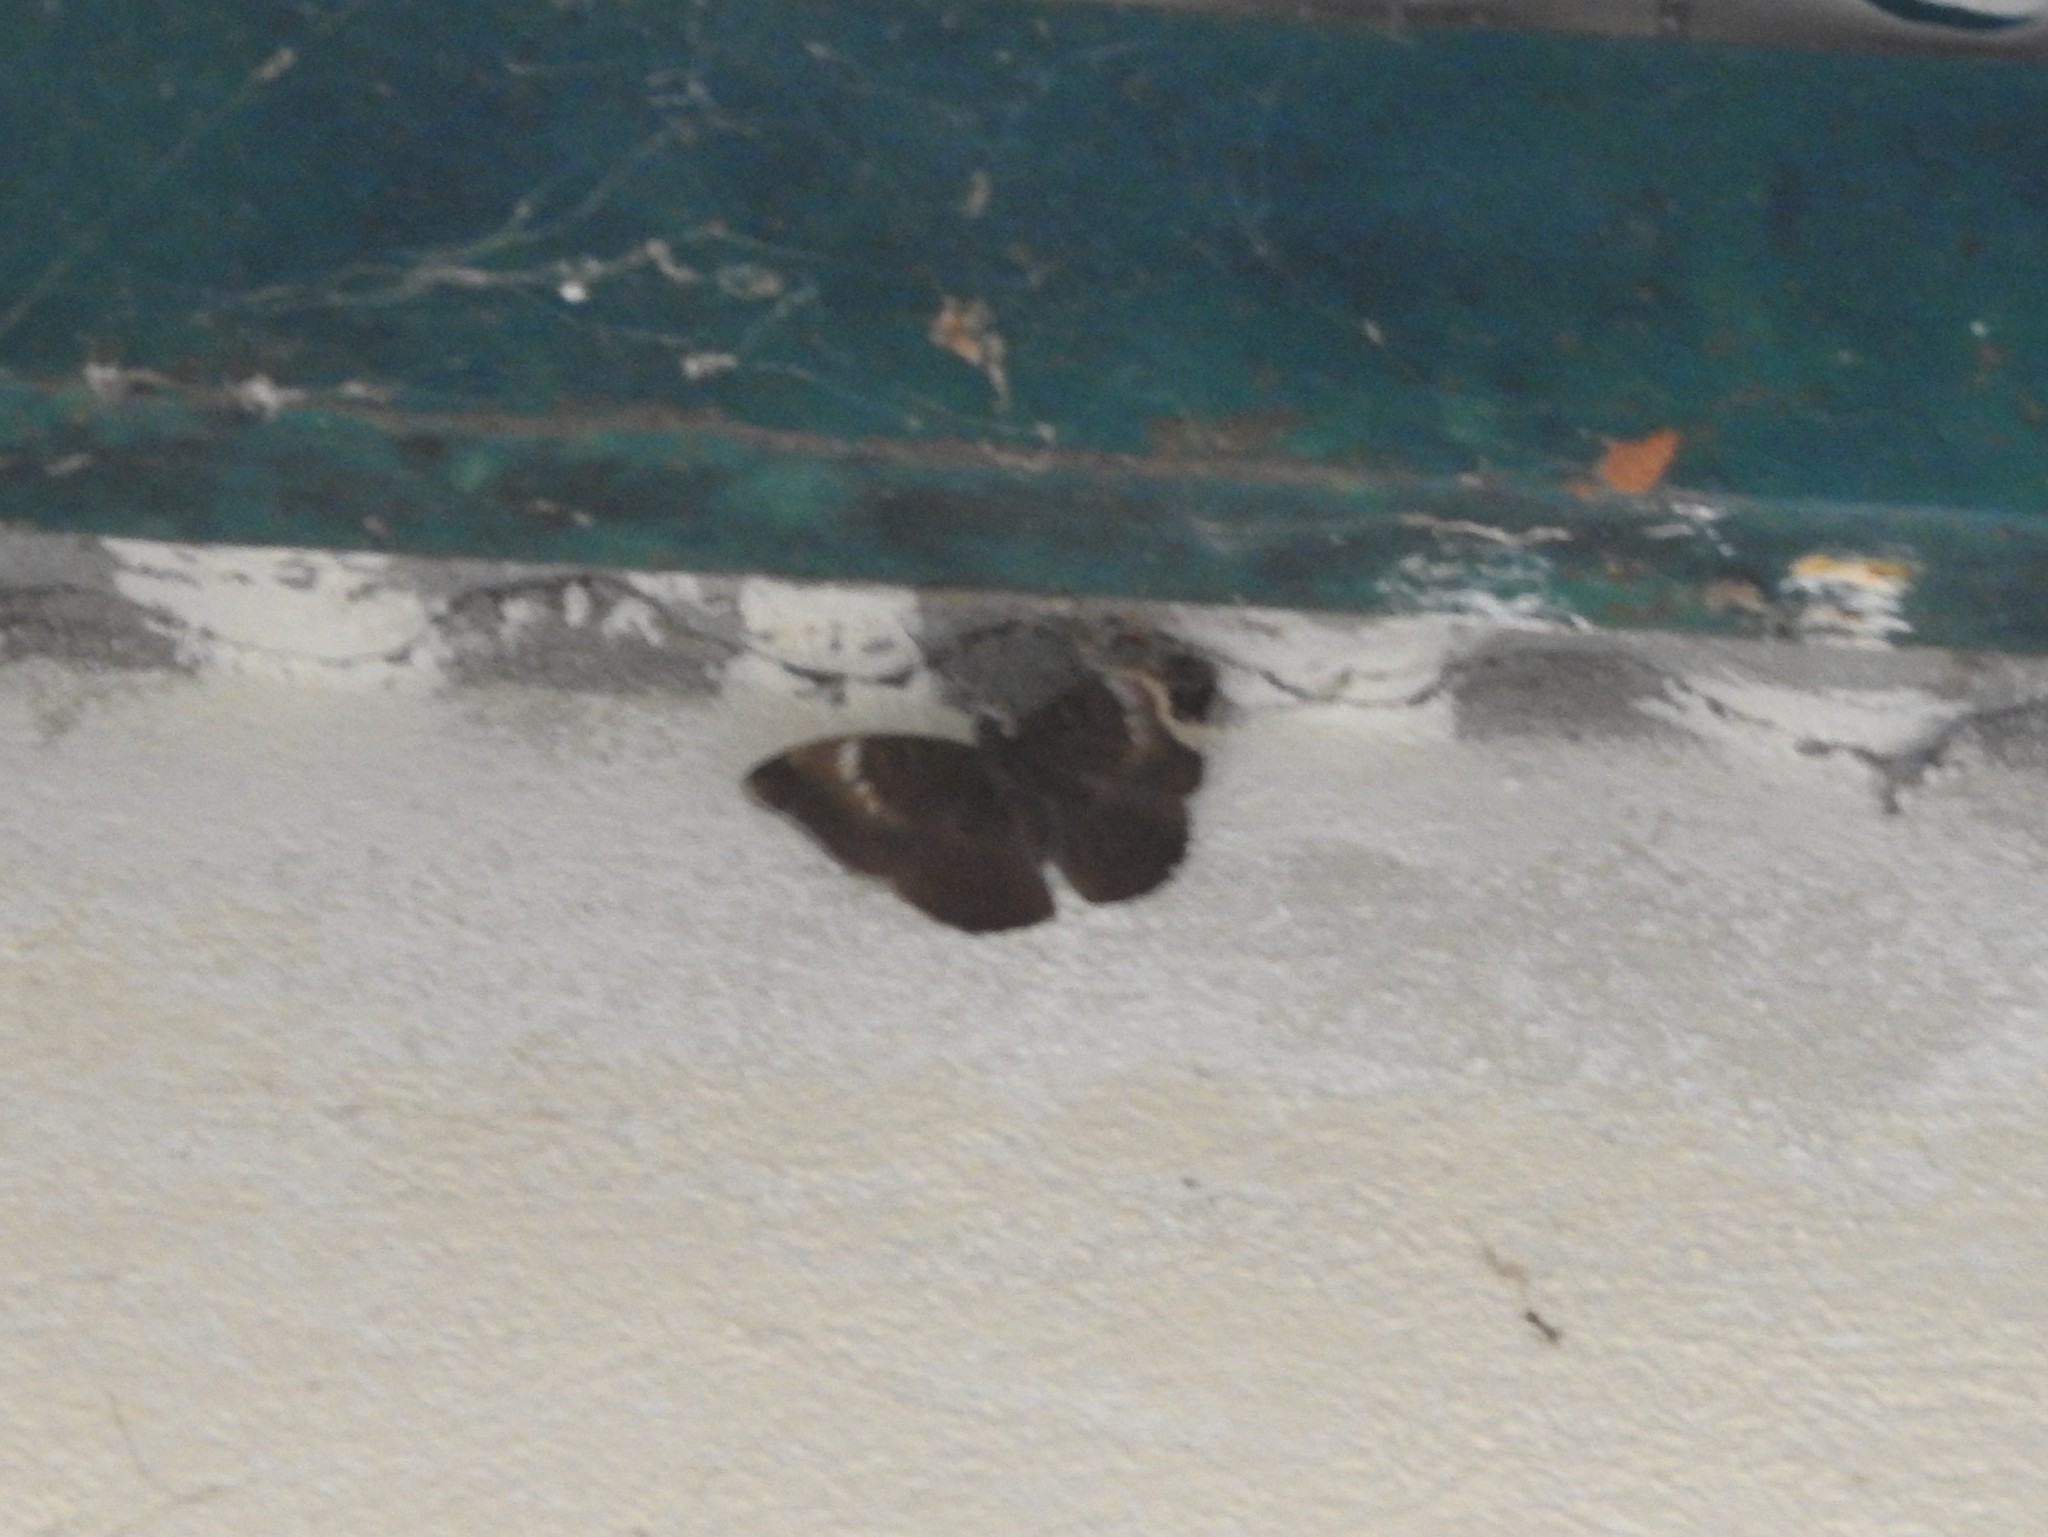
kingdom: Animalia
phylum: Arthropoda
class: Insecta
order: Lepidoptera
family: Nymphalidae
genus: Euthalia
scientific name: Euthalia aconthea
